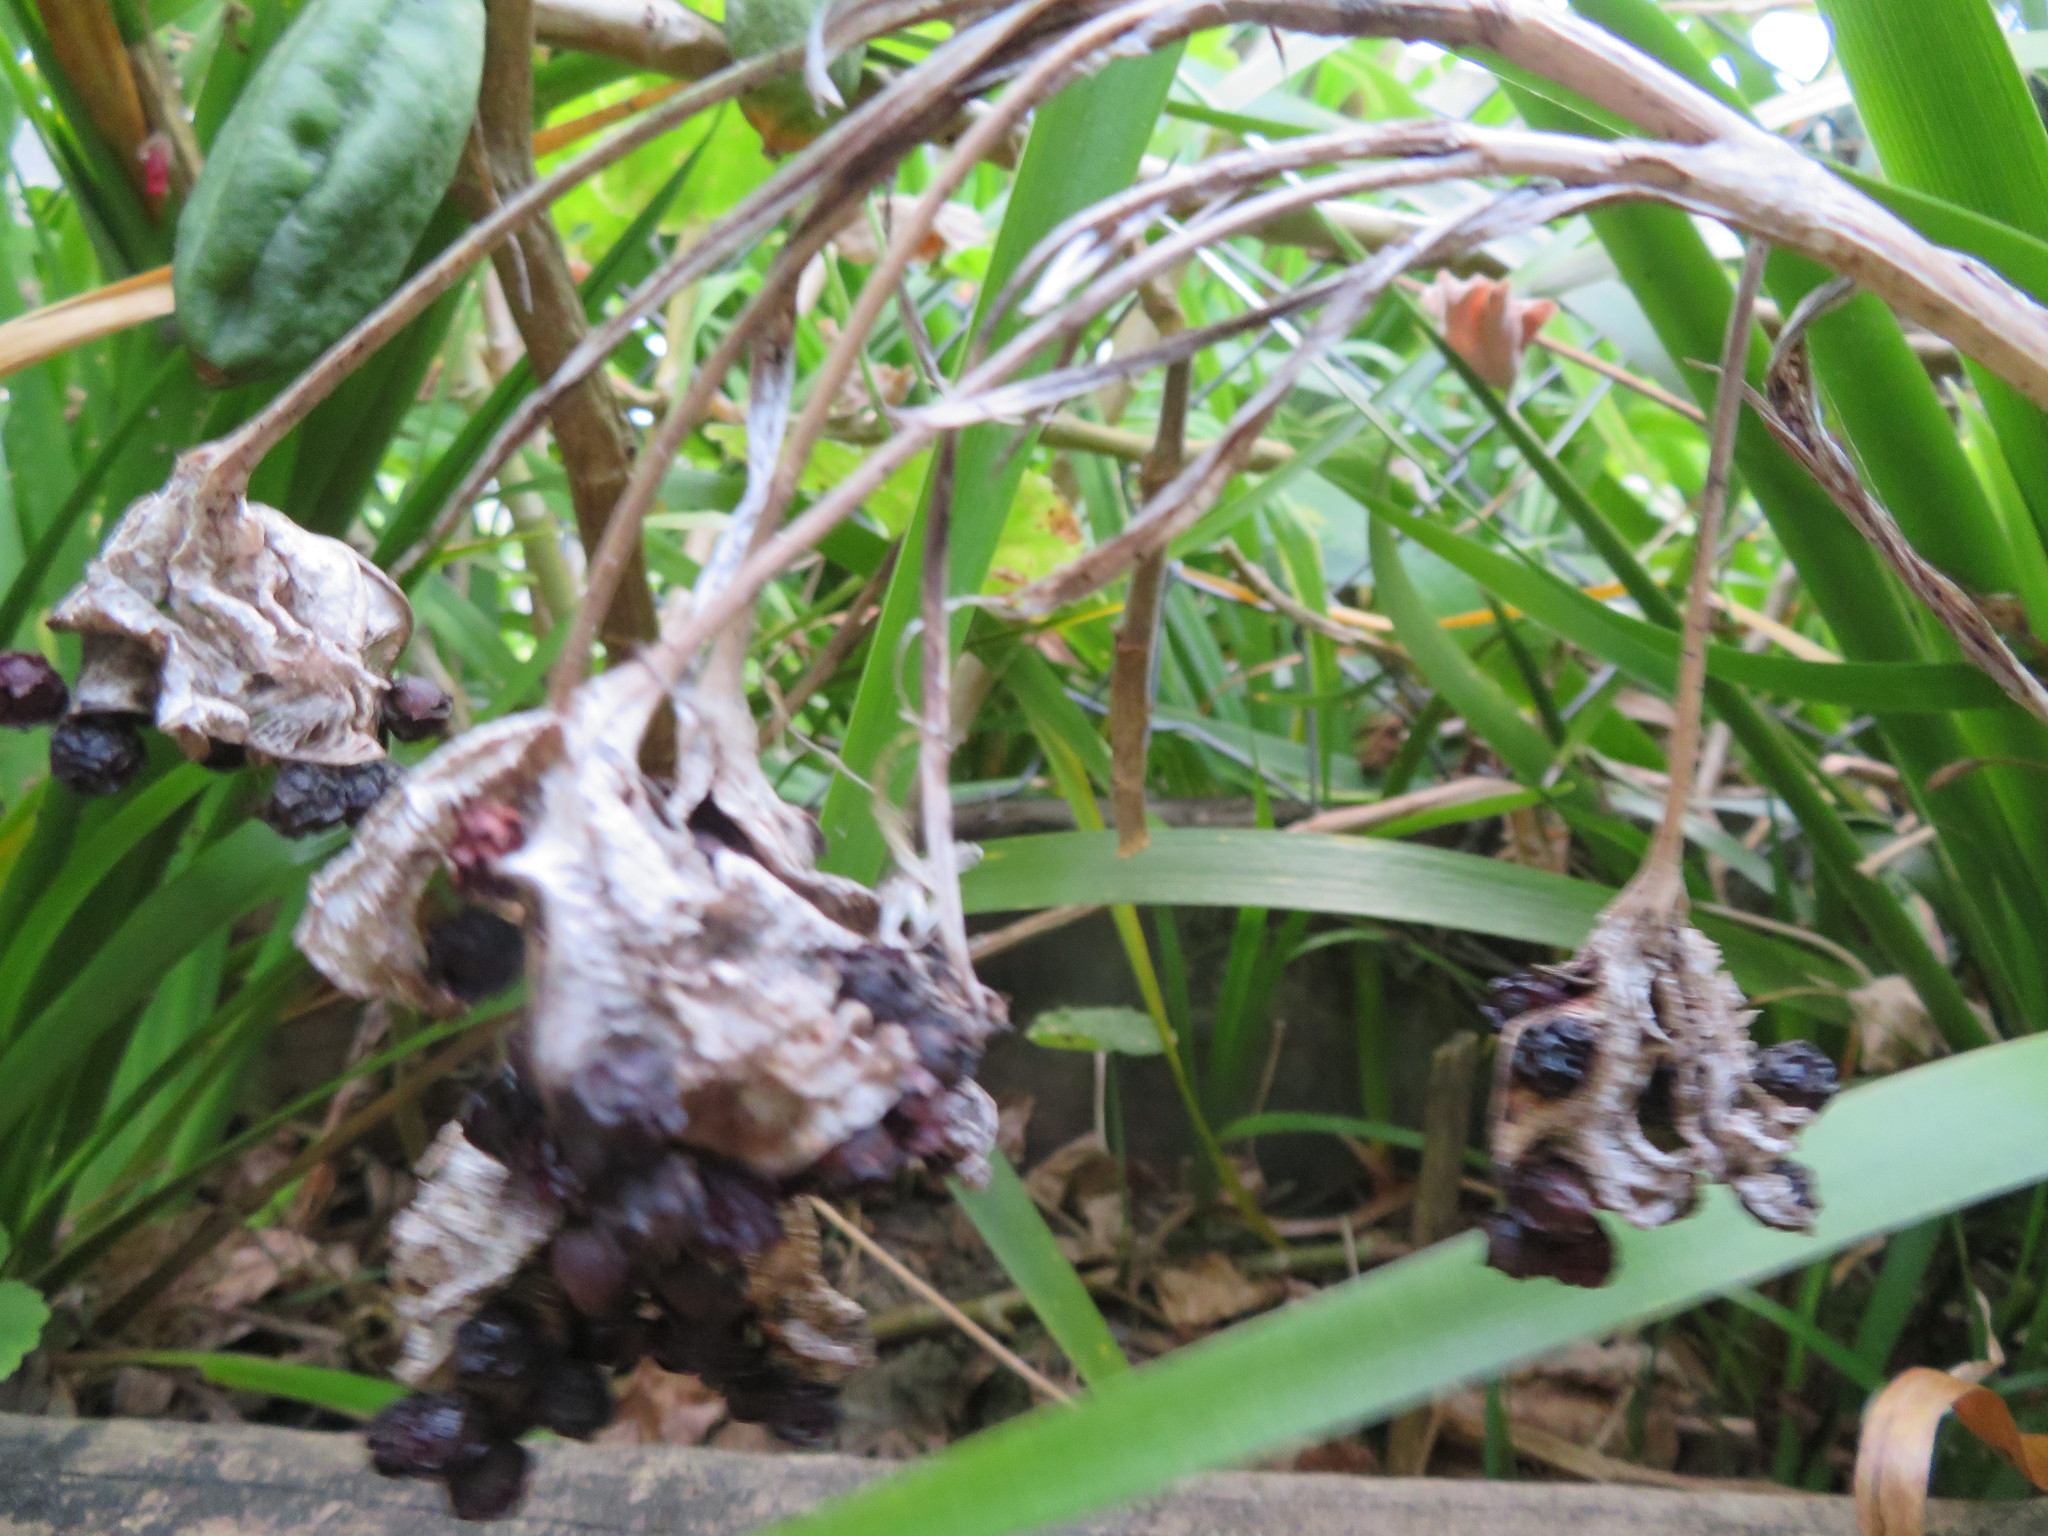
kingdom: Plantae
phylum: Tracheophyta
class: Liliopsida
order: Asparagales
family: Iridaceae
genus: Iris
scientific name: Iris foetidissima
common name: Stinking iris
